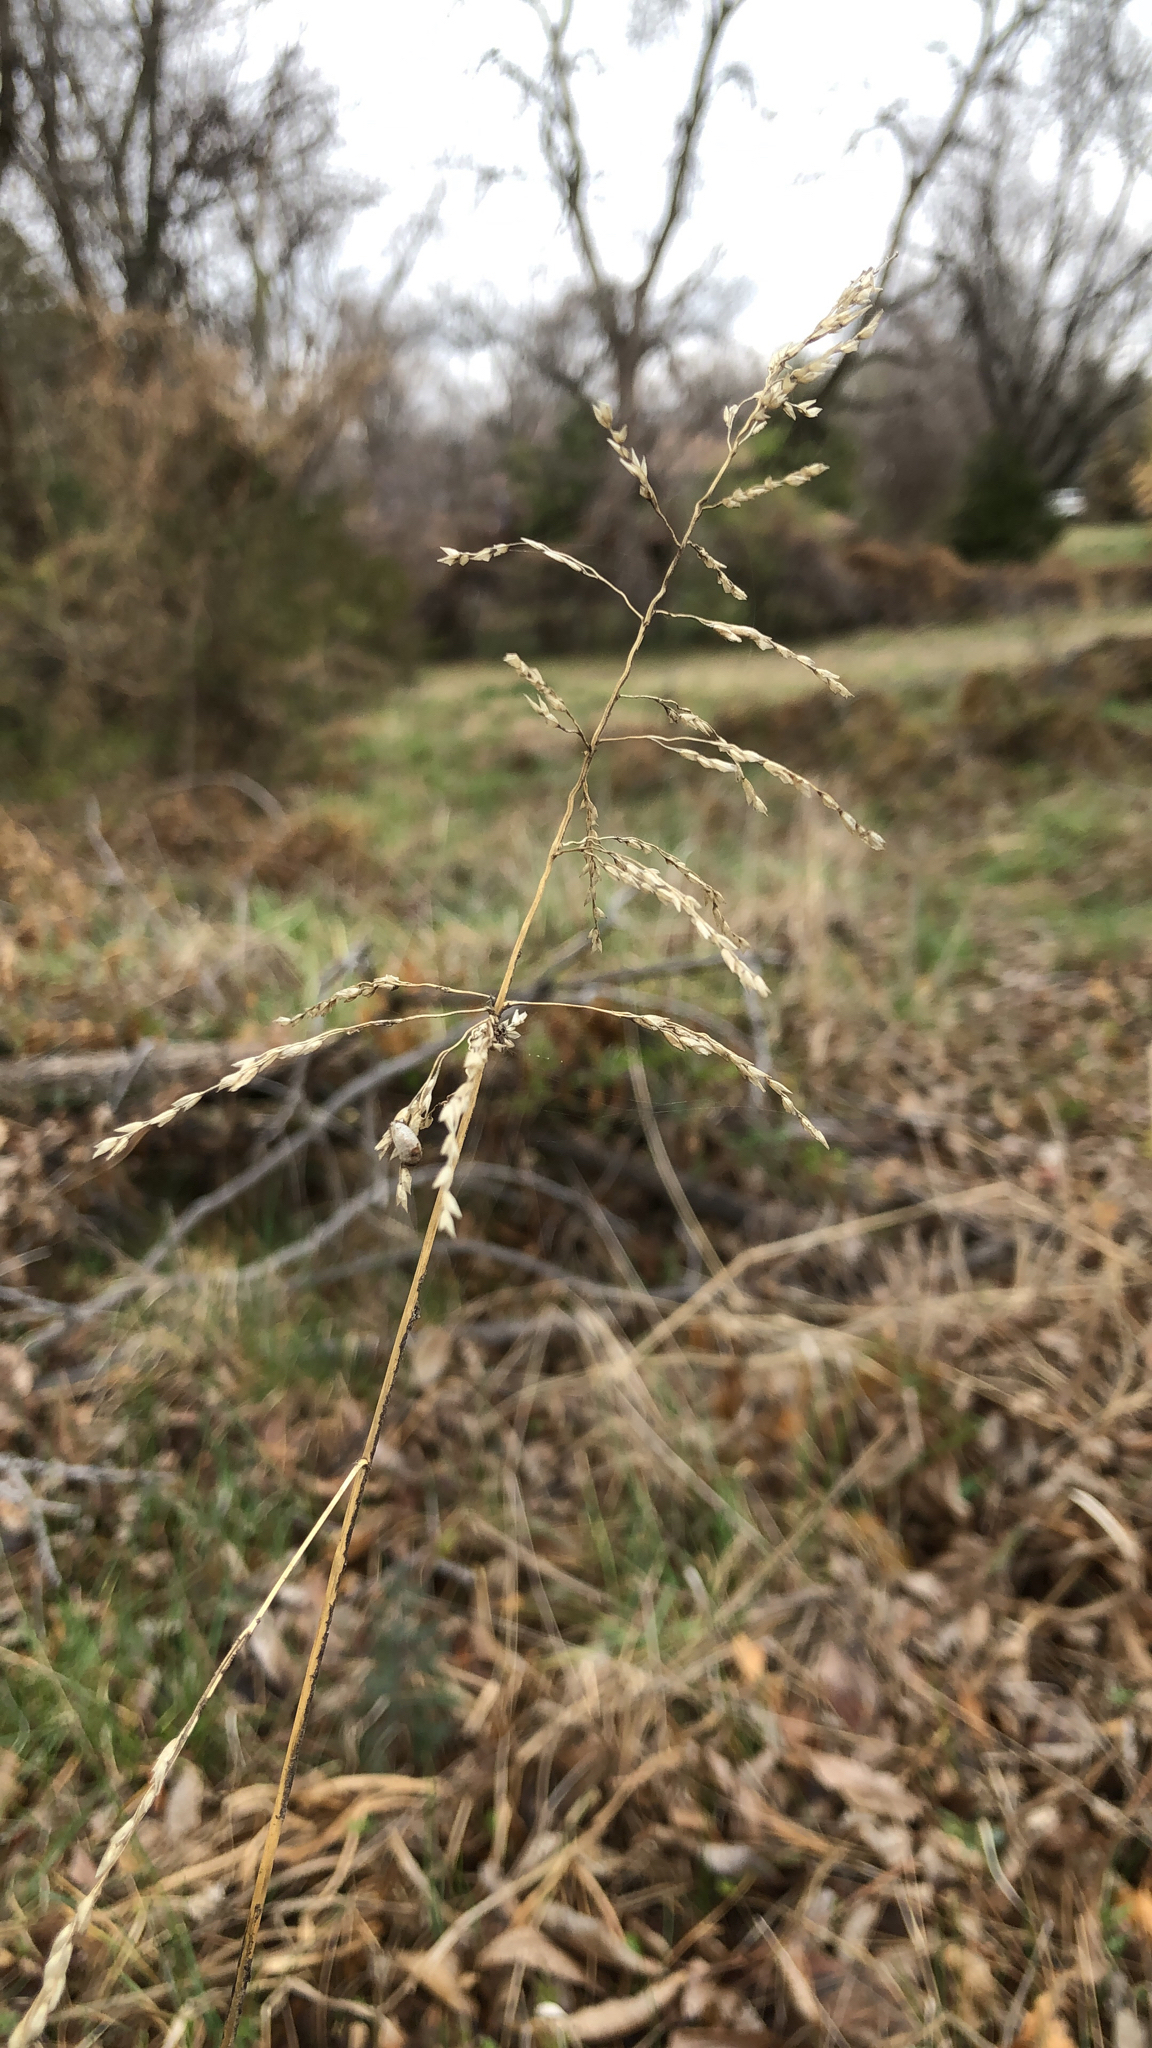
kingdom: Plantae
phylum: Tracheophyta
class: Liliopsida
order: Poales
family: Poaceae
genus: Tridens
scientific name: Tridens flavus
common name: Purpletop
